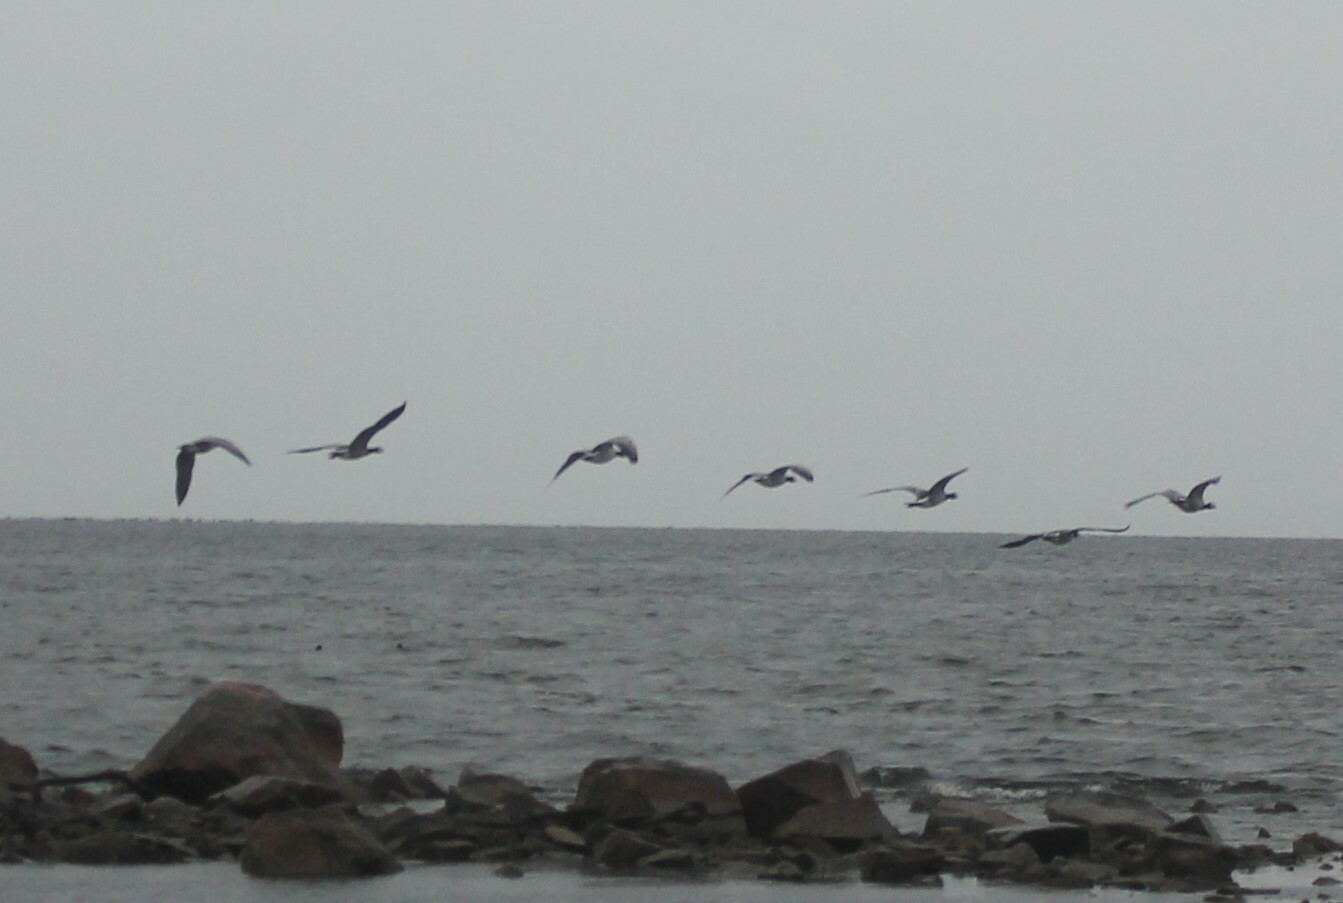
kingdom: Animalia
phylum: Chordata
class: Aves
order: Anseriformes
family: Anatidae
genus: Branta
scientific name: Branta leucopsis
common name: Barnacle goose
